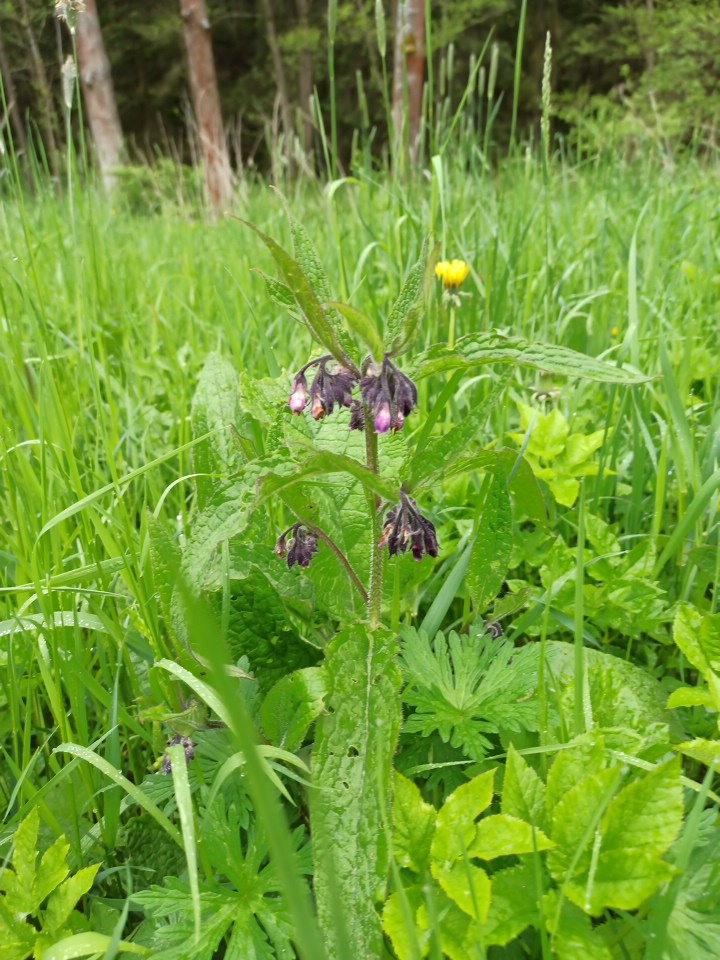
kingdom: Plantae
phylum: Tracheophyta
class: Magnoliopsida
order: Boraginales
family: Boraginaceae
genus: Symphytum
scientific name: Symphytum officinale
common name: Common comfrey
